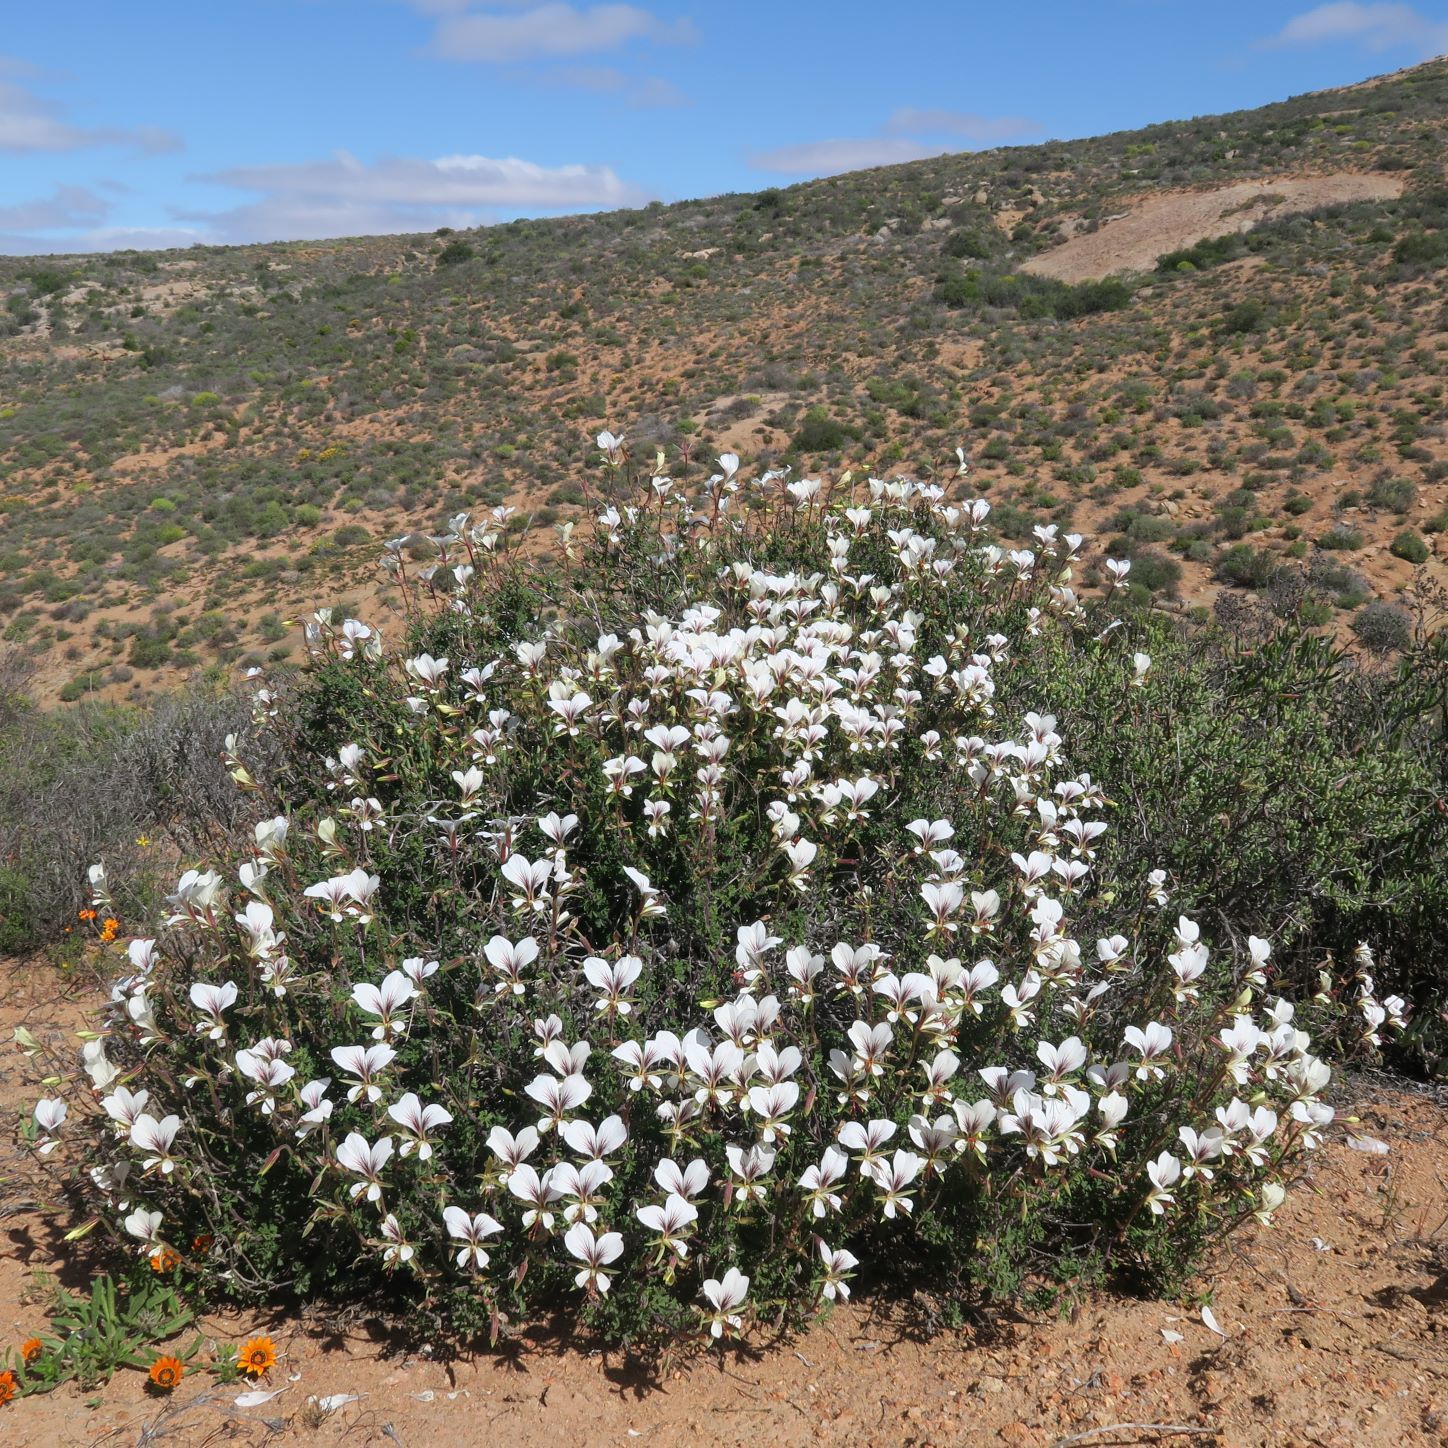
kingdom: Plantae
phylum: Tracheophyta
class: Magnoliopsida
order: Geraniales
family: Geraniaceae
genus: Pelargonium
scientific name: Pelargonium praemorsum
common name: Quinate-leaf pelargonium
